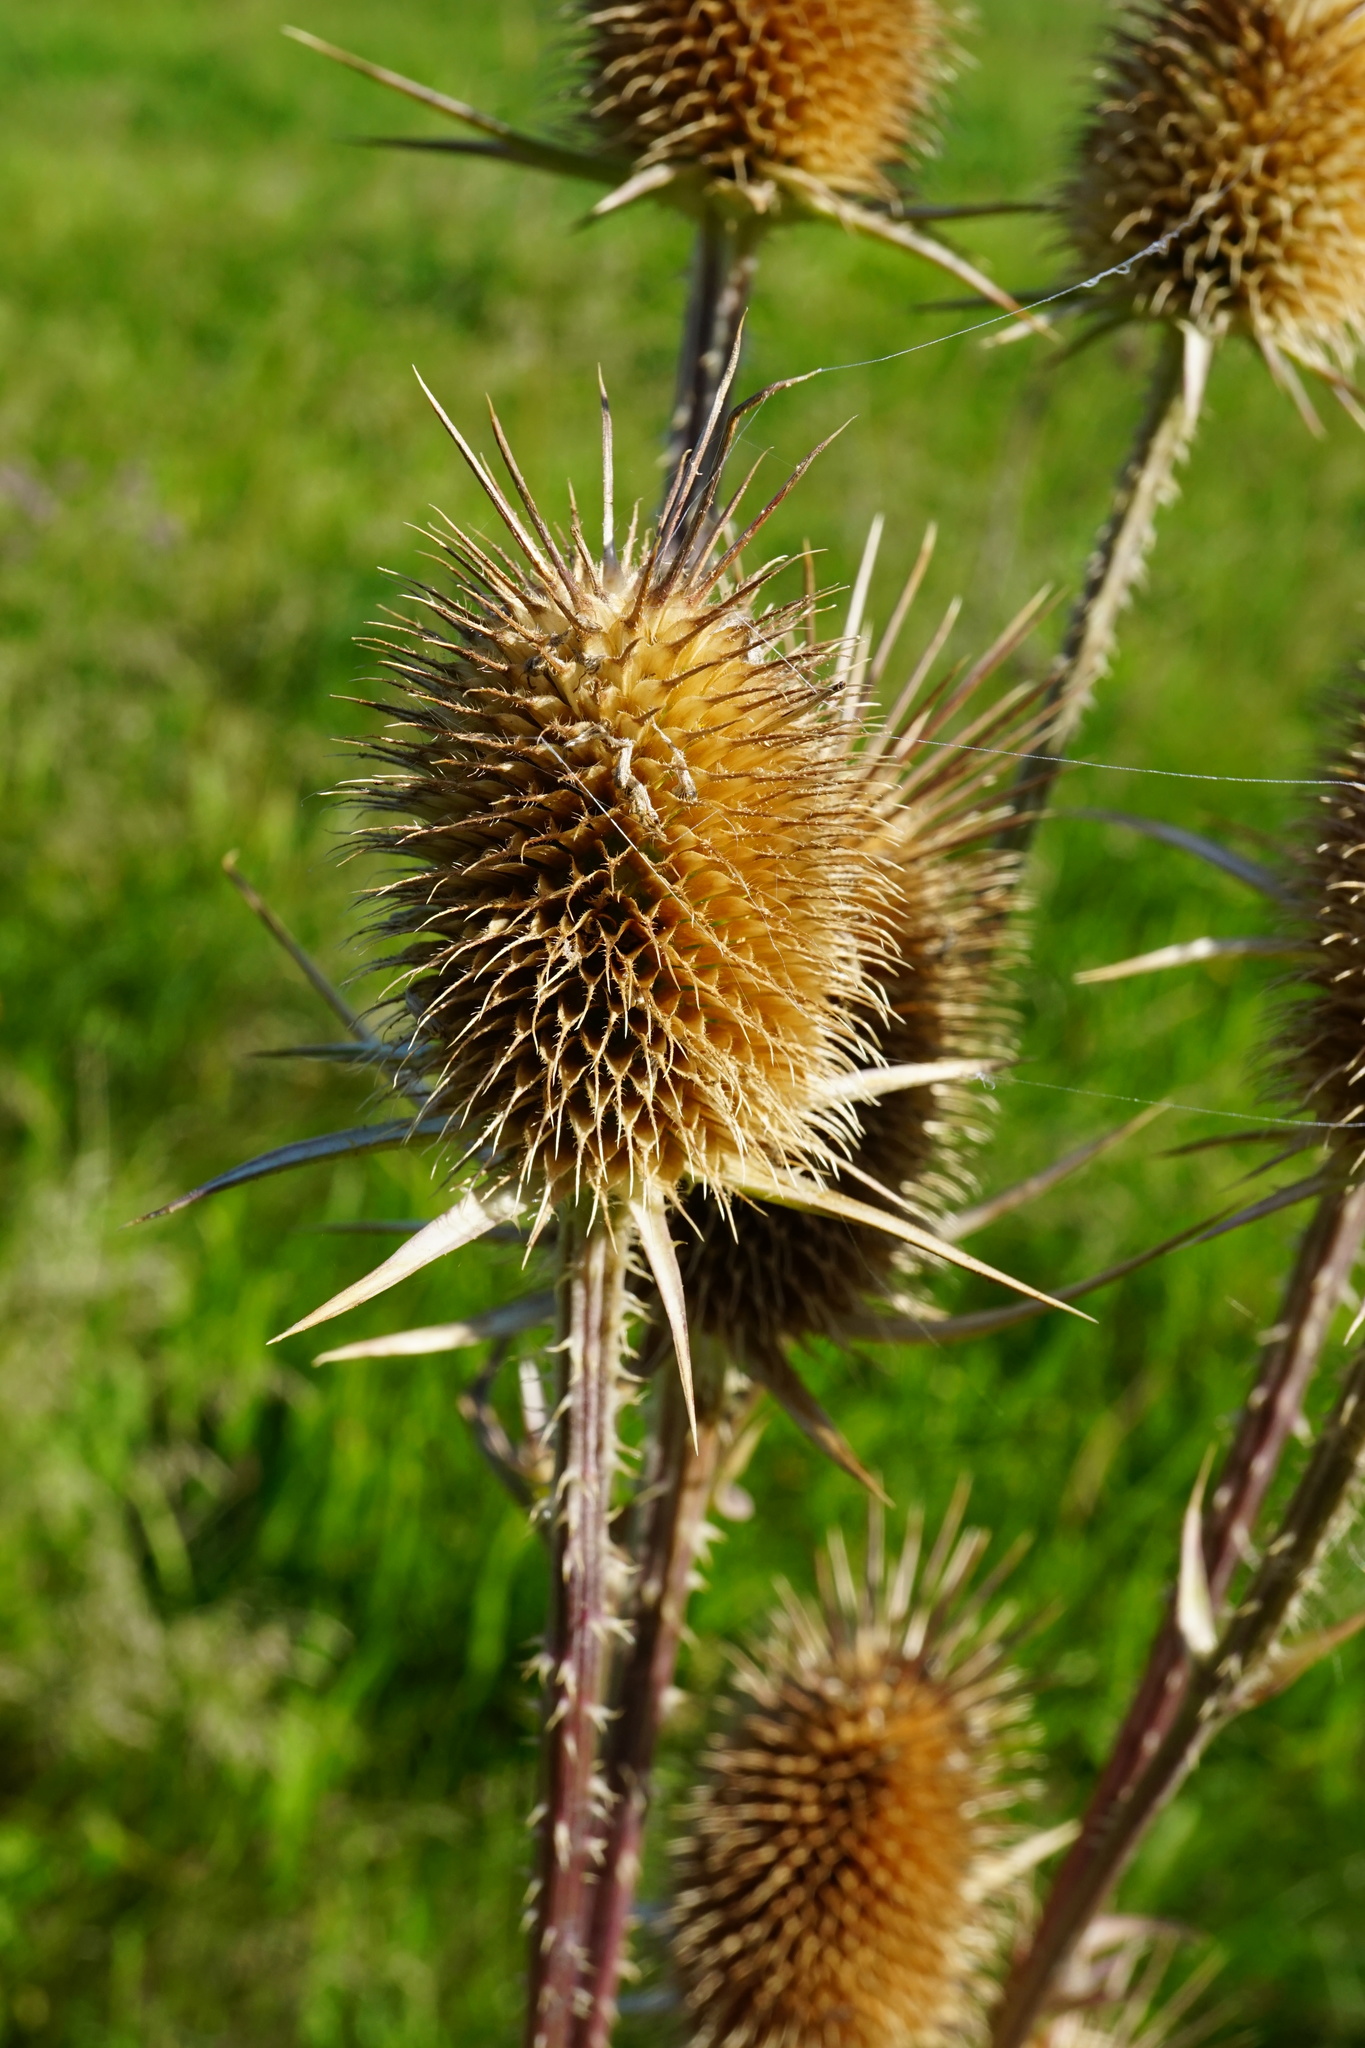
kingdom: Plantae
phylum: Tracheophyta
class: Magnoliopsida
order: Dipsacales
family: Caprifoliaceae
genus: Dipsacus
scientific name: Dipsacus laciniatus
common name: Cut-leaved teasel
